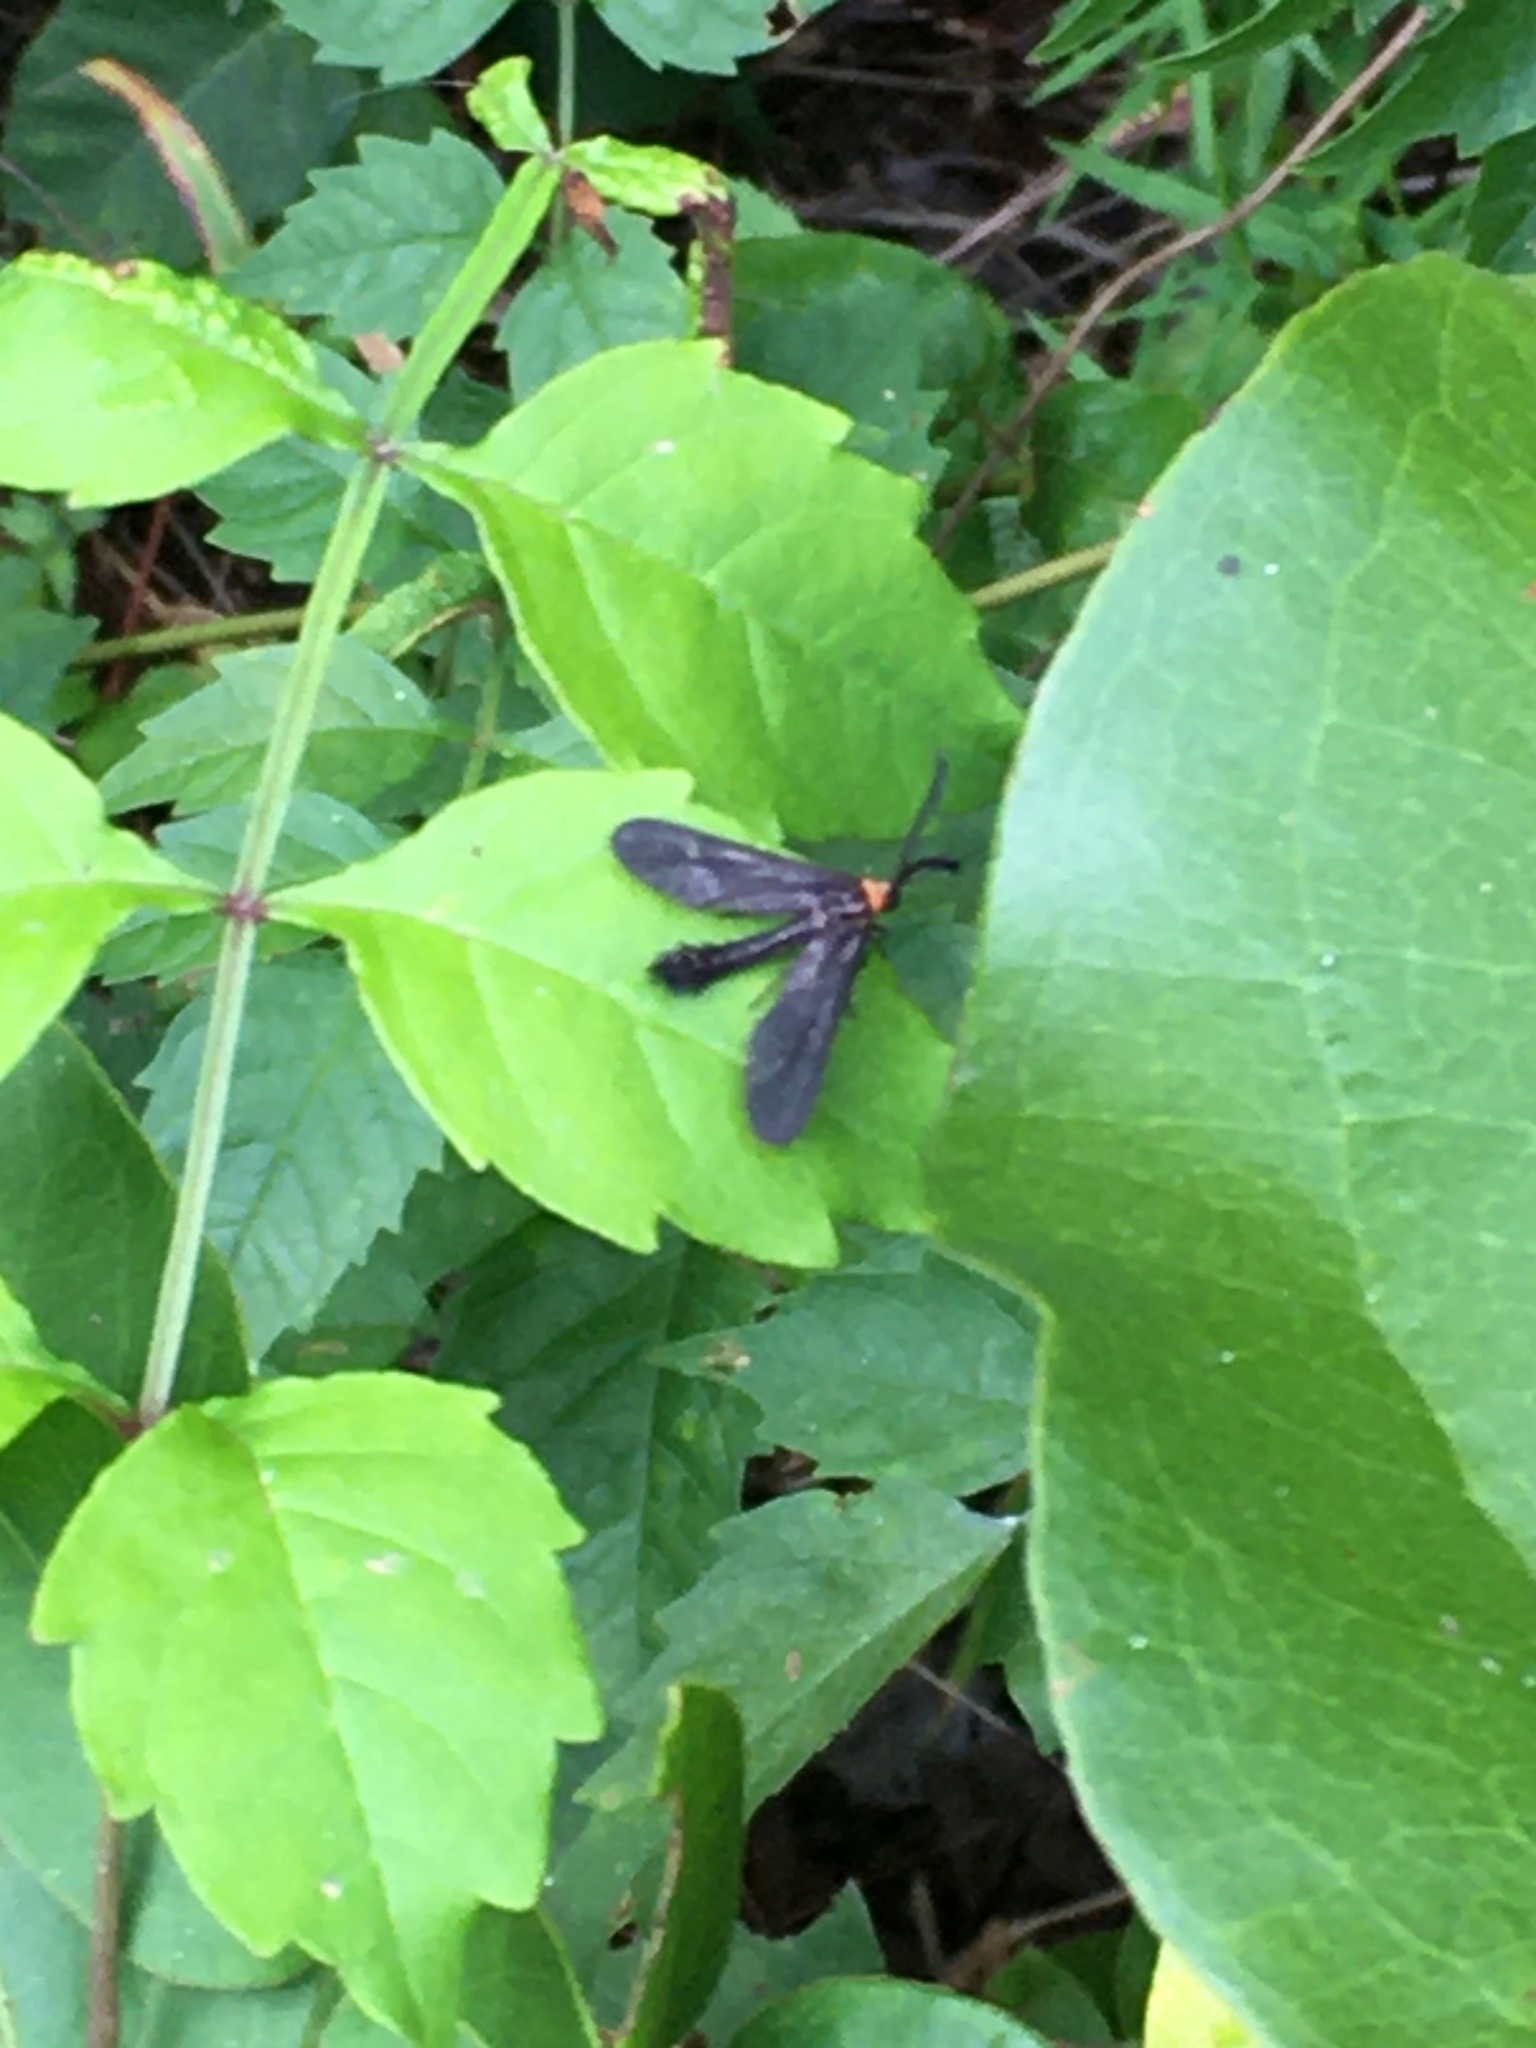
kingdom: Animalia
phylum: Arthropoda
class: Insecta
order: Lepidoptera
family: Zygaenidae
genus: Harrisina
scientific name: Harrisina americana
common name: Grapeleaf skeletonizer moth
